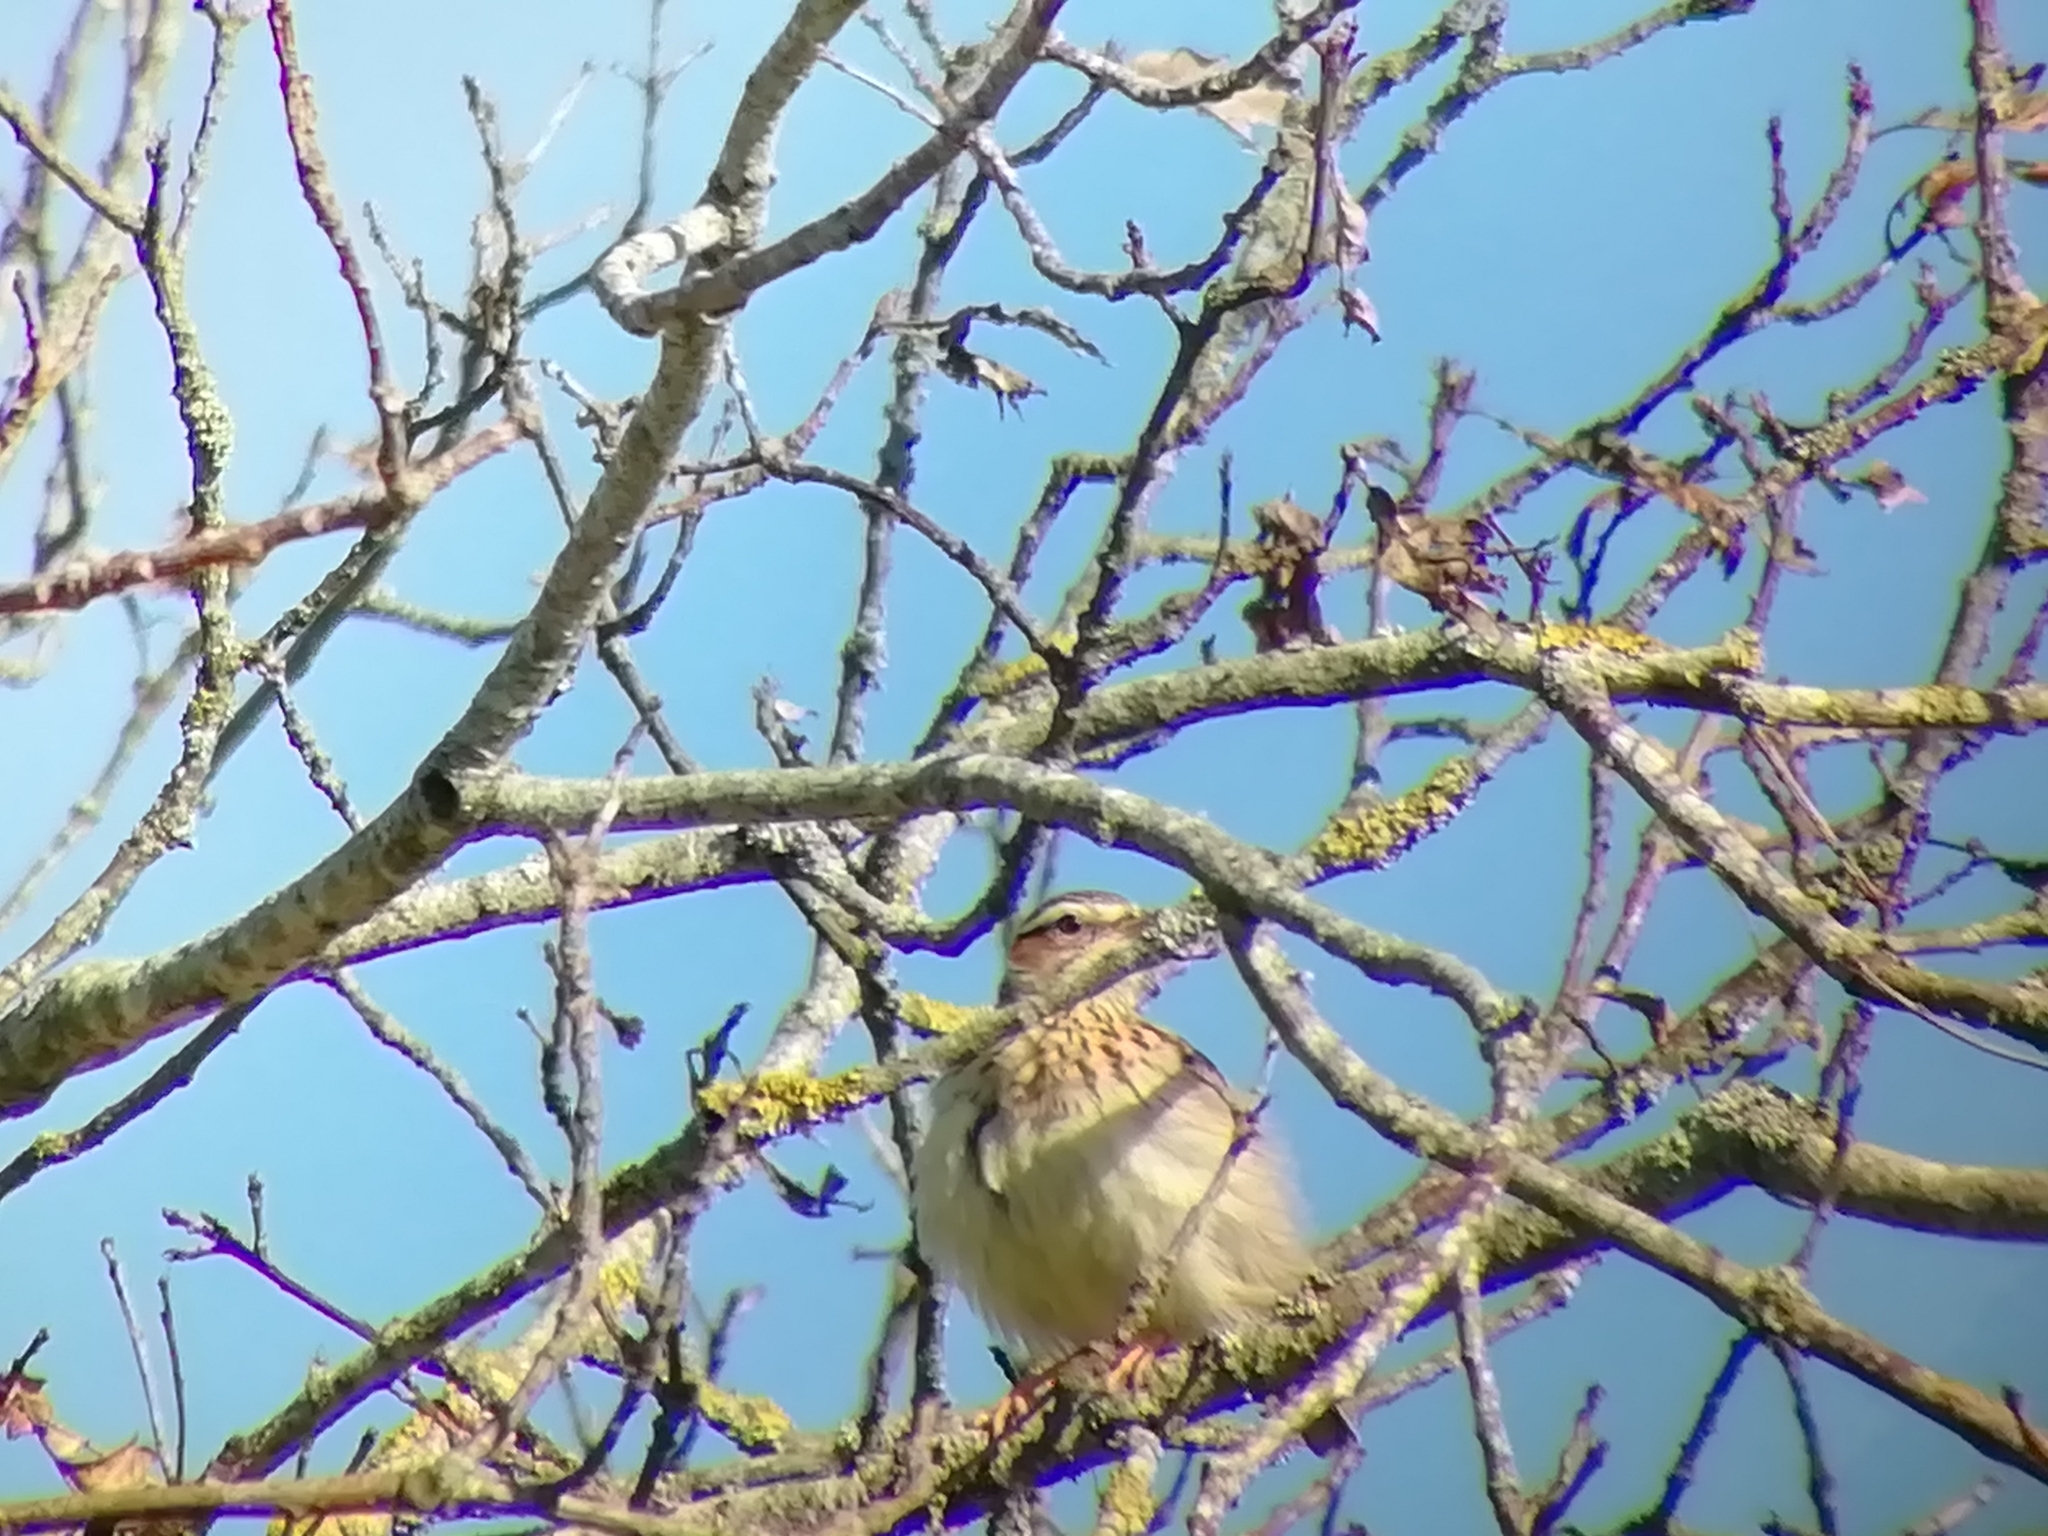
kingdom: Animalia
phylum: Chordata
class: Aves
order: Passeriformes
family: Alaudidae
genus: Lullula
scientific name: Lullula arborea
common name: Woodlark
